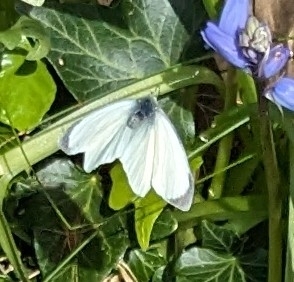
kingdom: Animalia
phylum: Arthropoda
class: Insecta
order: Lepidoptera
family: Pieridae
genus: Pieris
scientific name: Pieris brassicae
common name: Large white
